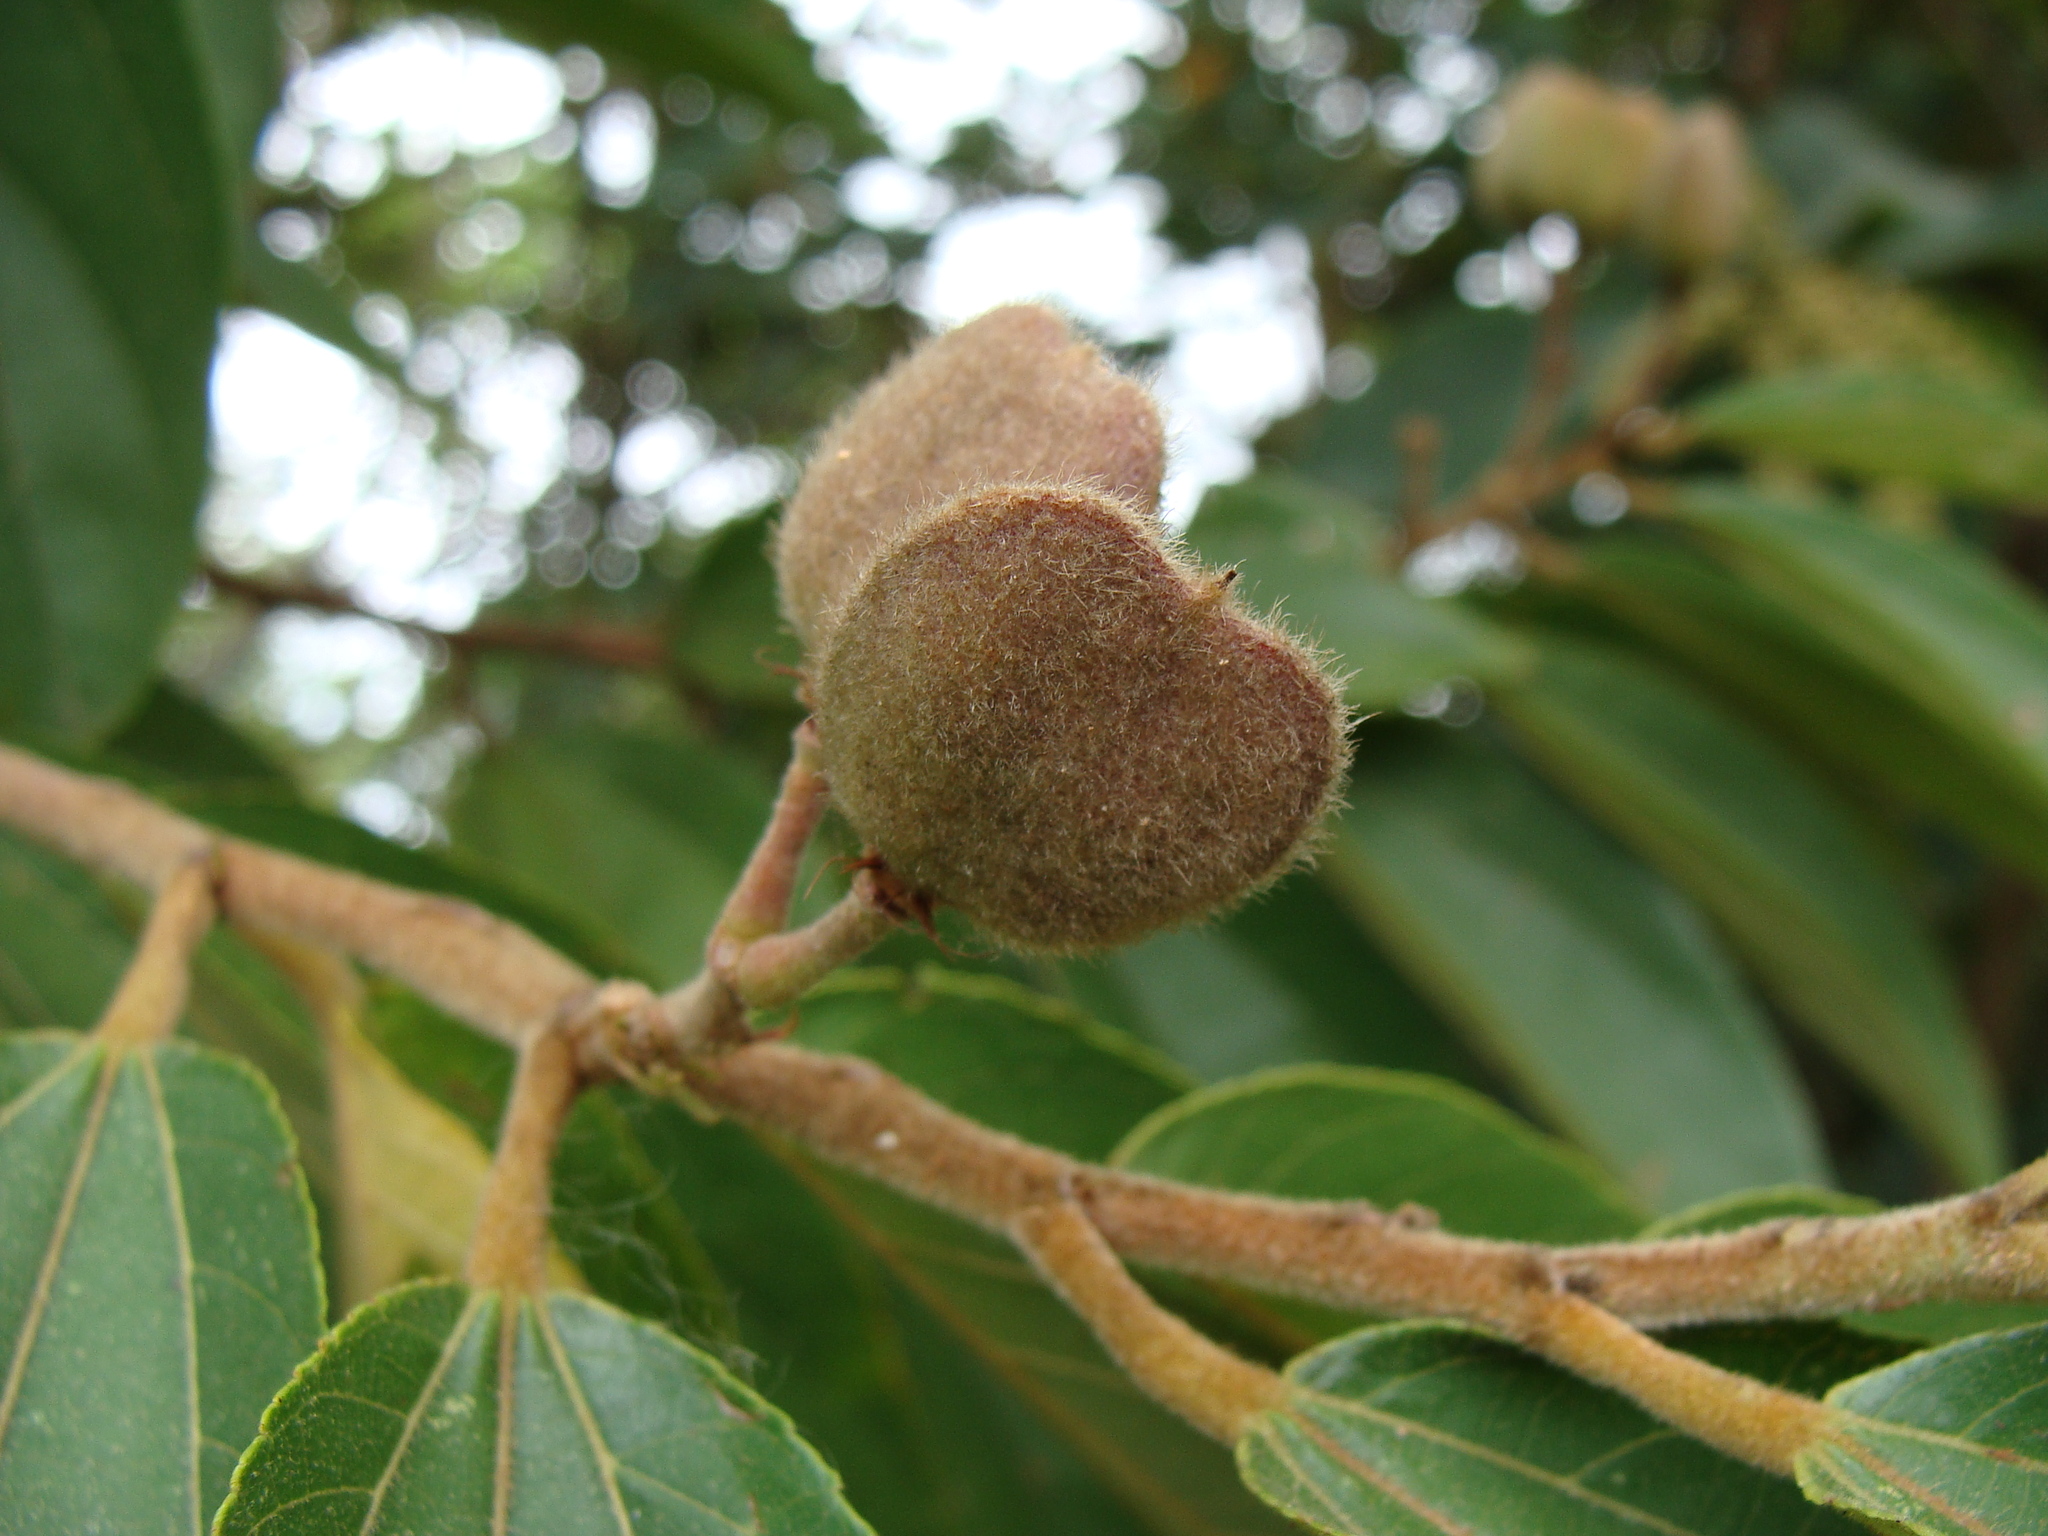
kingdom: Plantae
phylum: Tracheophyta
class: Magnoliopsida
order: Malvales
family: Malvaceae
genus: Trichospermum
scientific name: Trichospermum mexicanum
